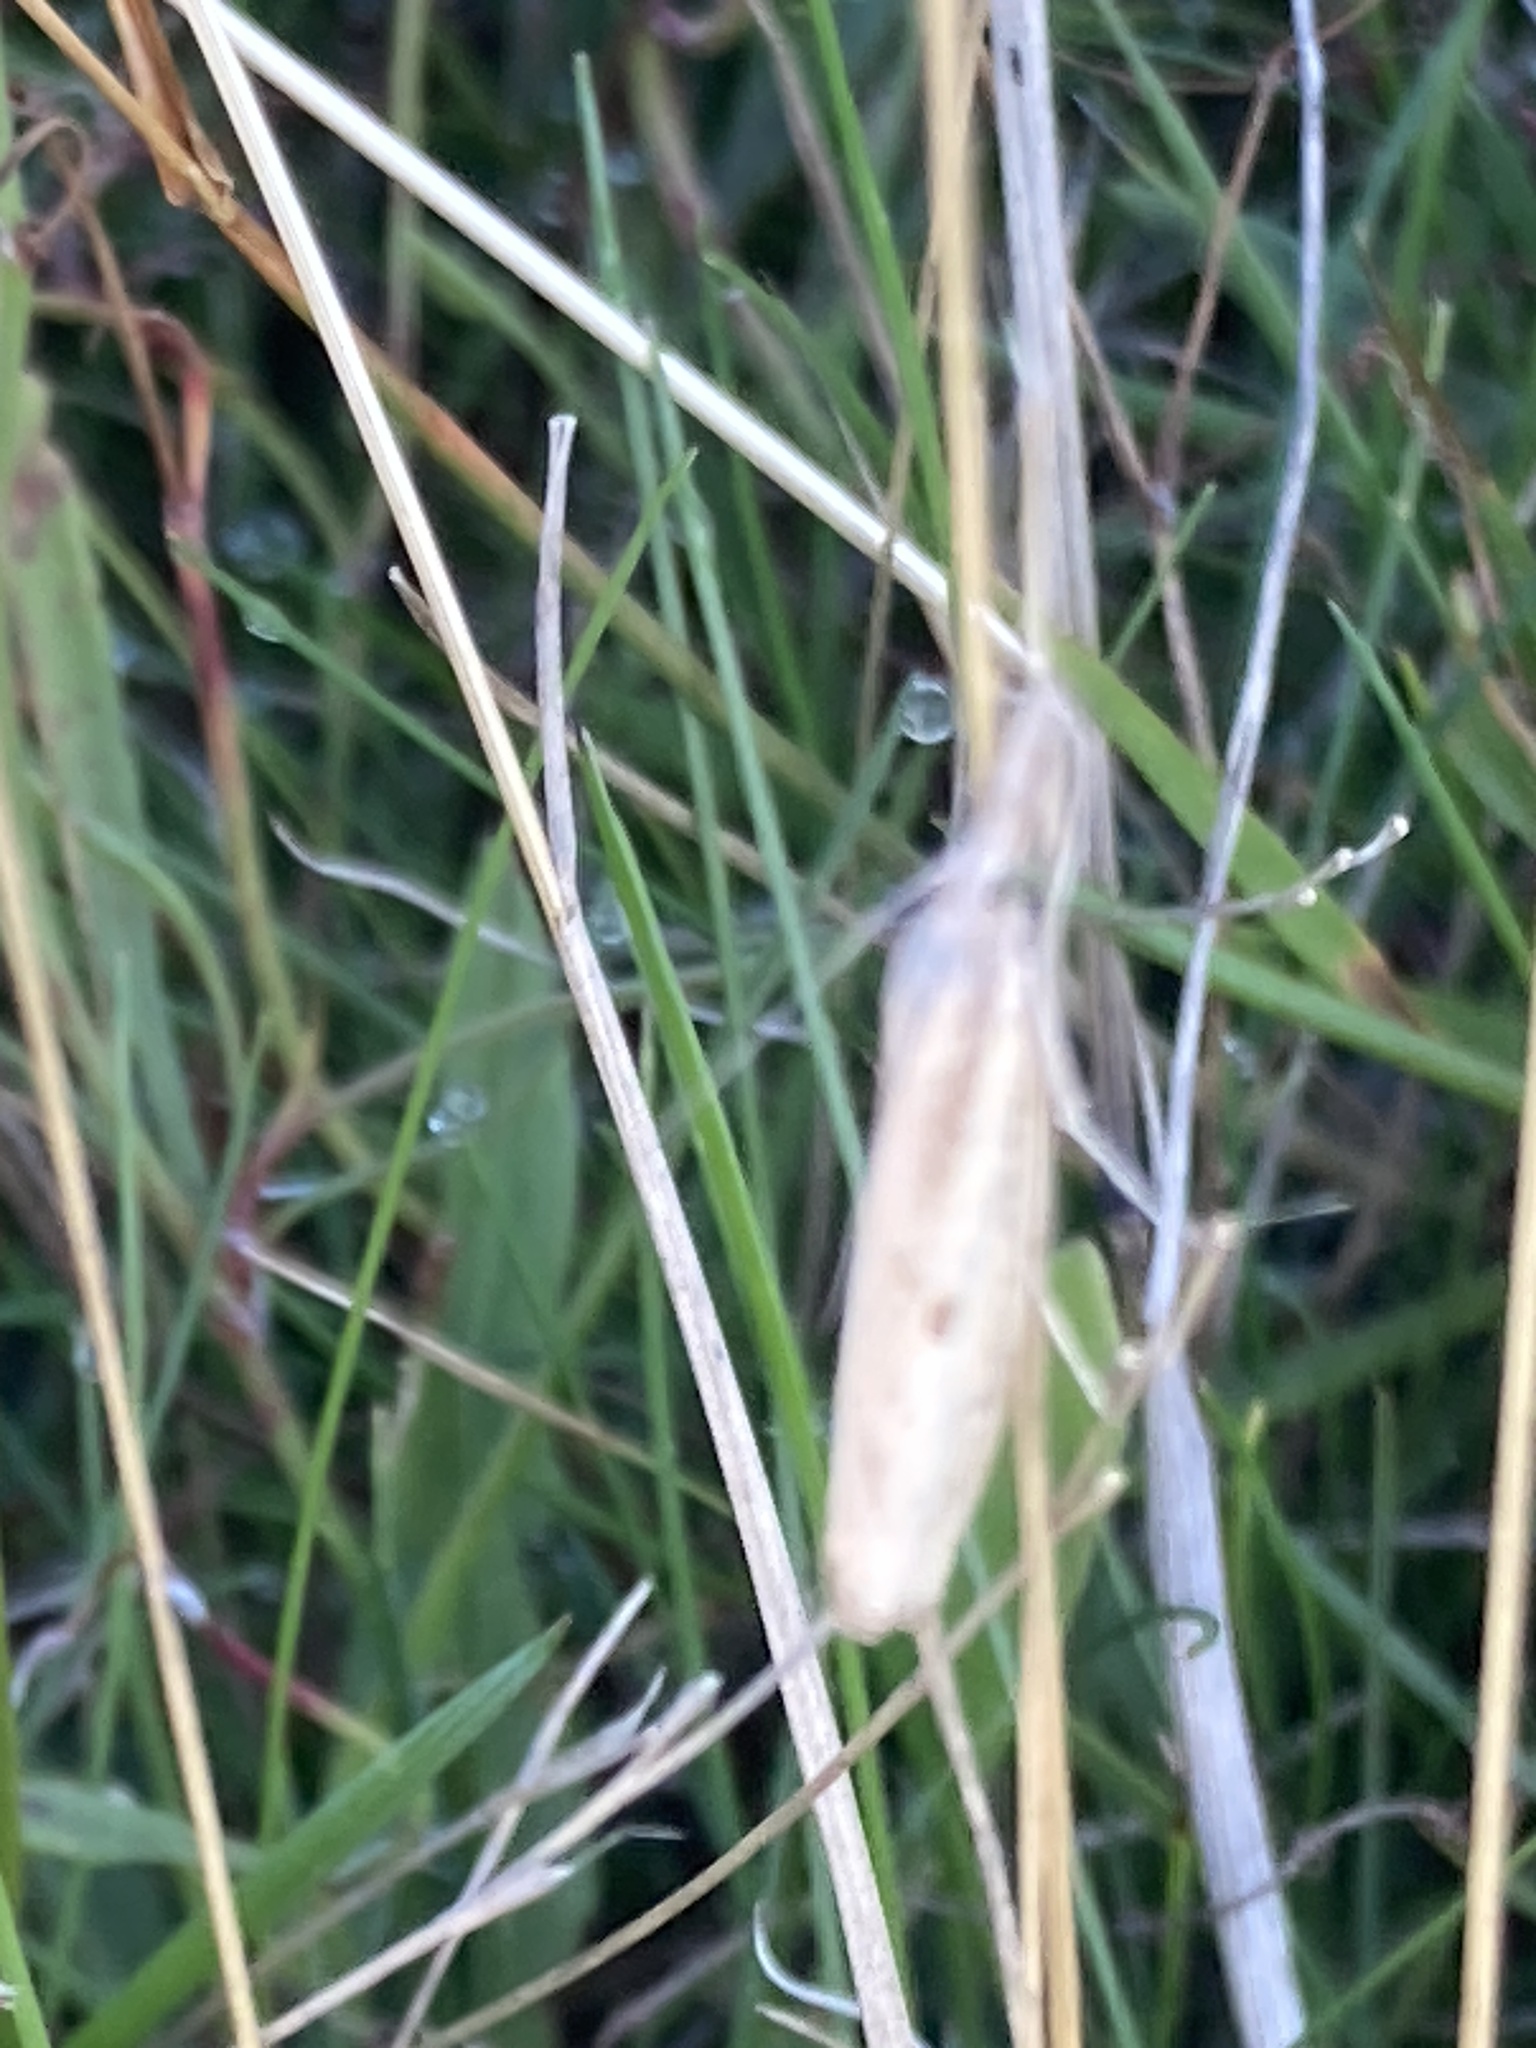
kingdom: Animalia
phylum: Arthropoda
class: Insecta
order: Lepidoptera
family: Crambidae
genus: Agriphila
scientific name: Agriphila inquinatella
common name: Barred grass-veneer
